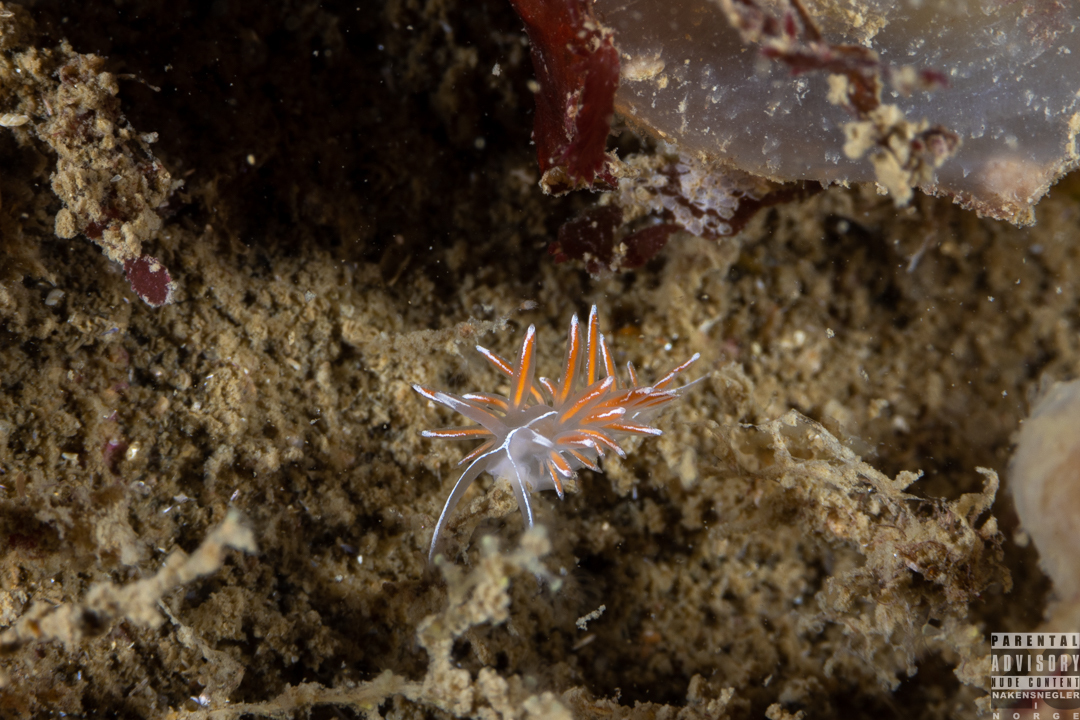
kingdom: Animalia
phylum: Mollusca
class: Gastropoda
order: Nudibranchia
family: Coryphellidae
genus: Coryphella
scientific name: Coryphella lineata
